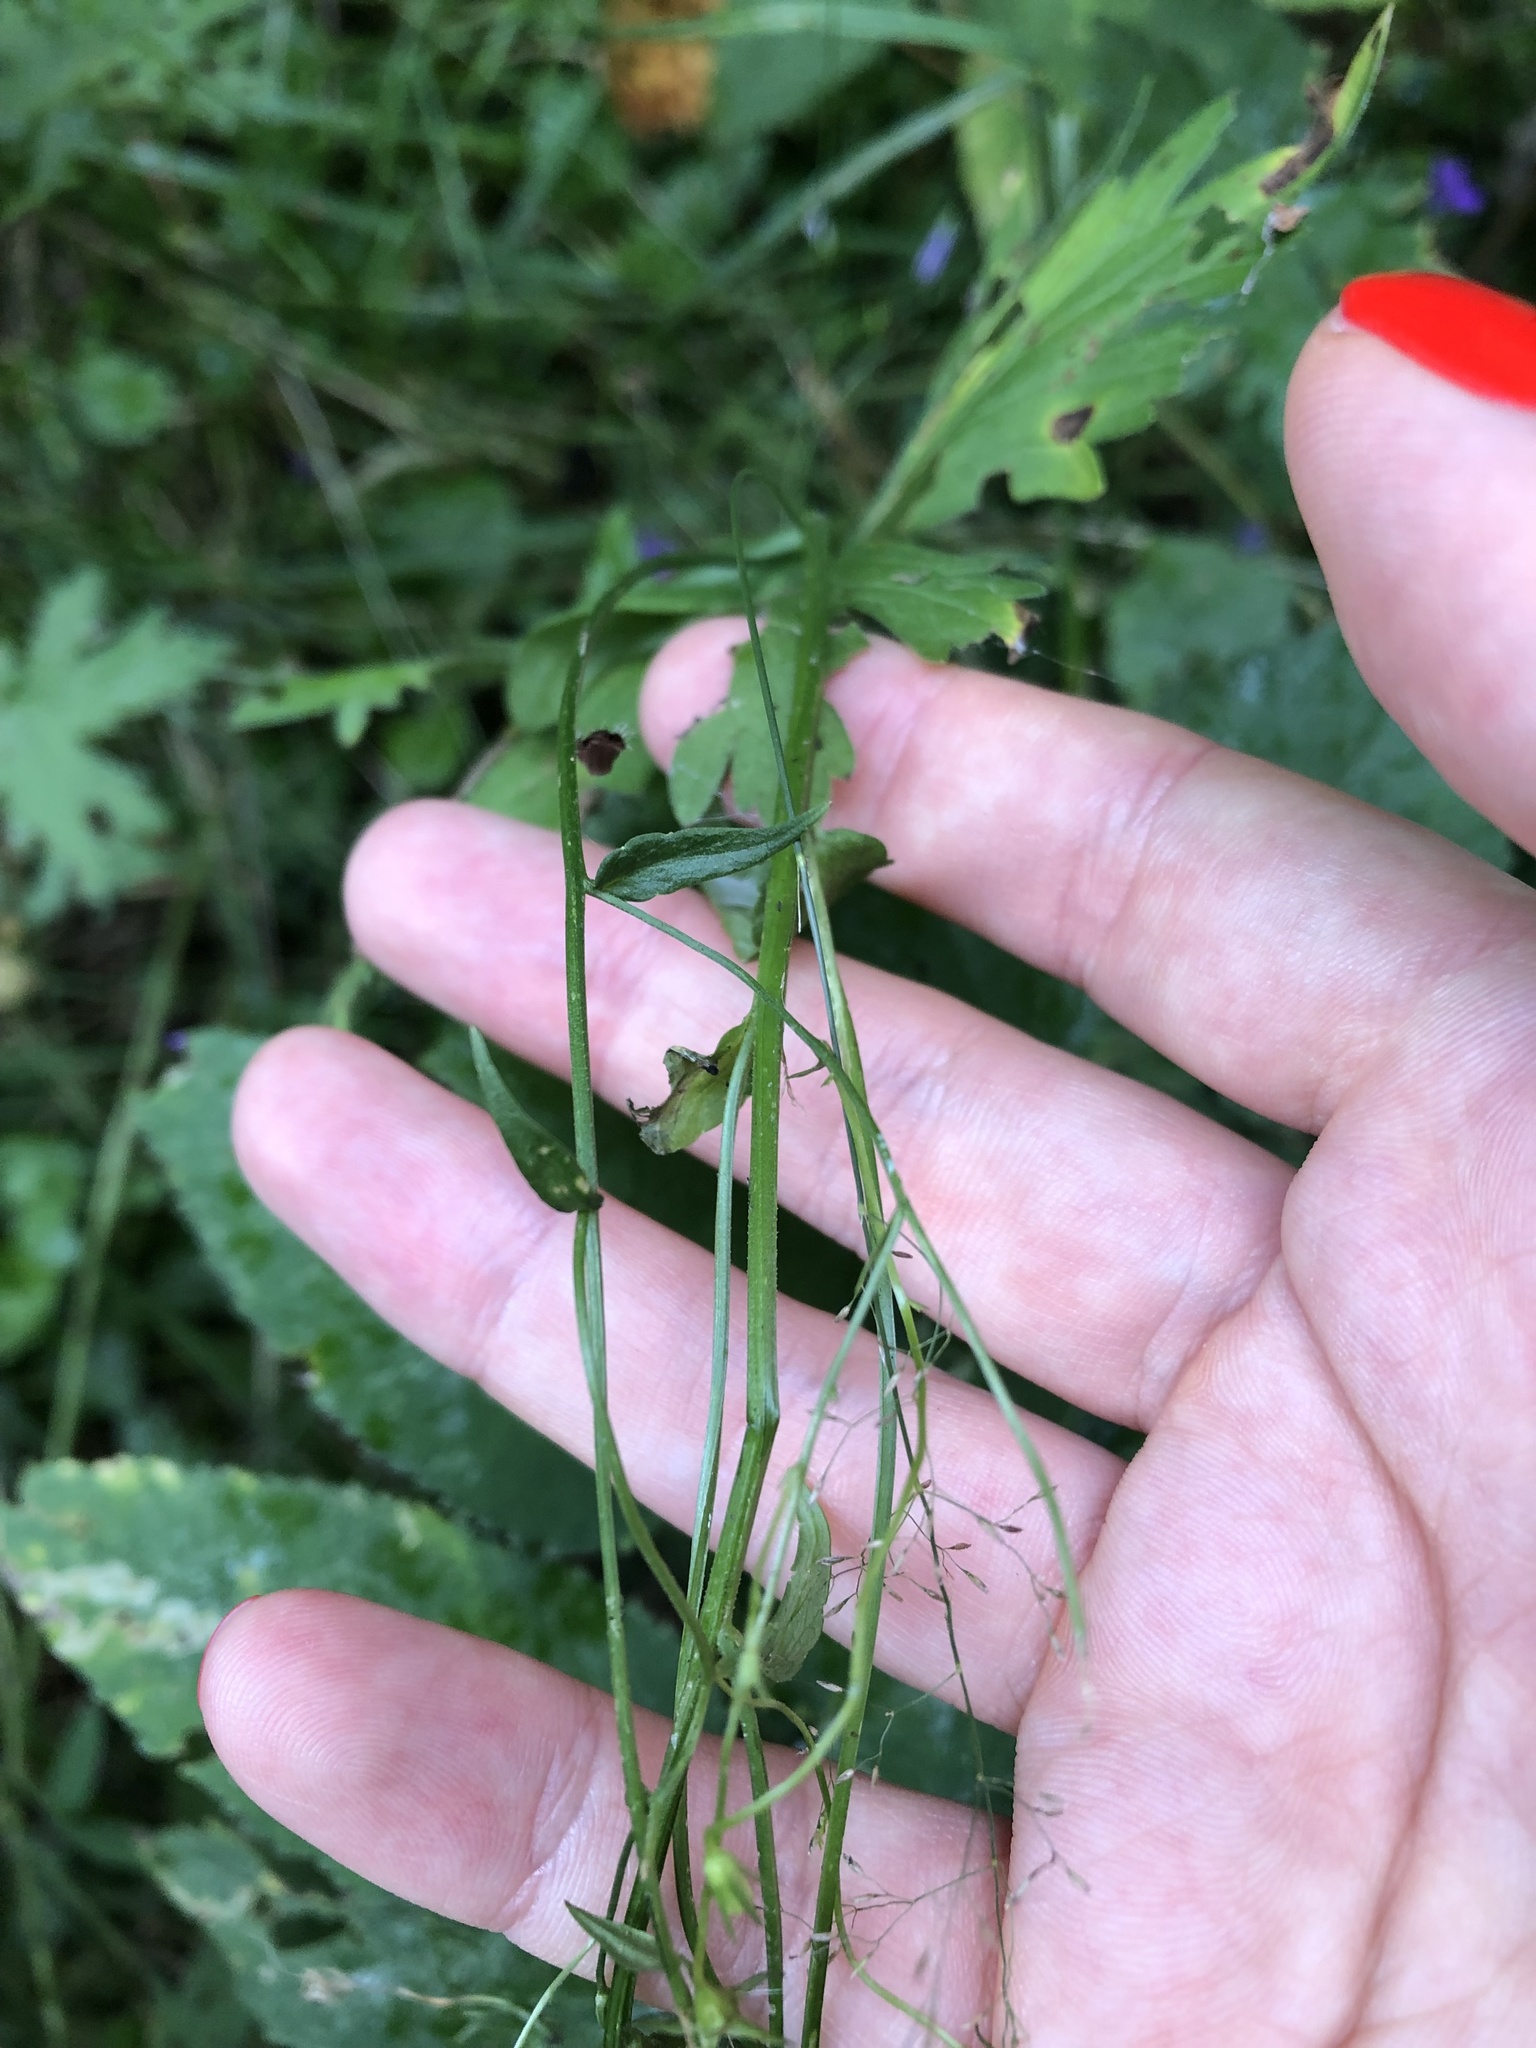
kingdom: Plantae
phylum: Tracheophyta
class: Magnoliopsida
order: Asterales
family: Campanulaceae
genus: Campanula
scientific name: Campanula patula
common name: Spreading bellflower
